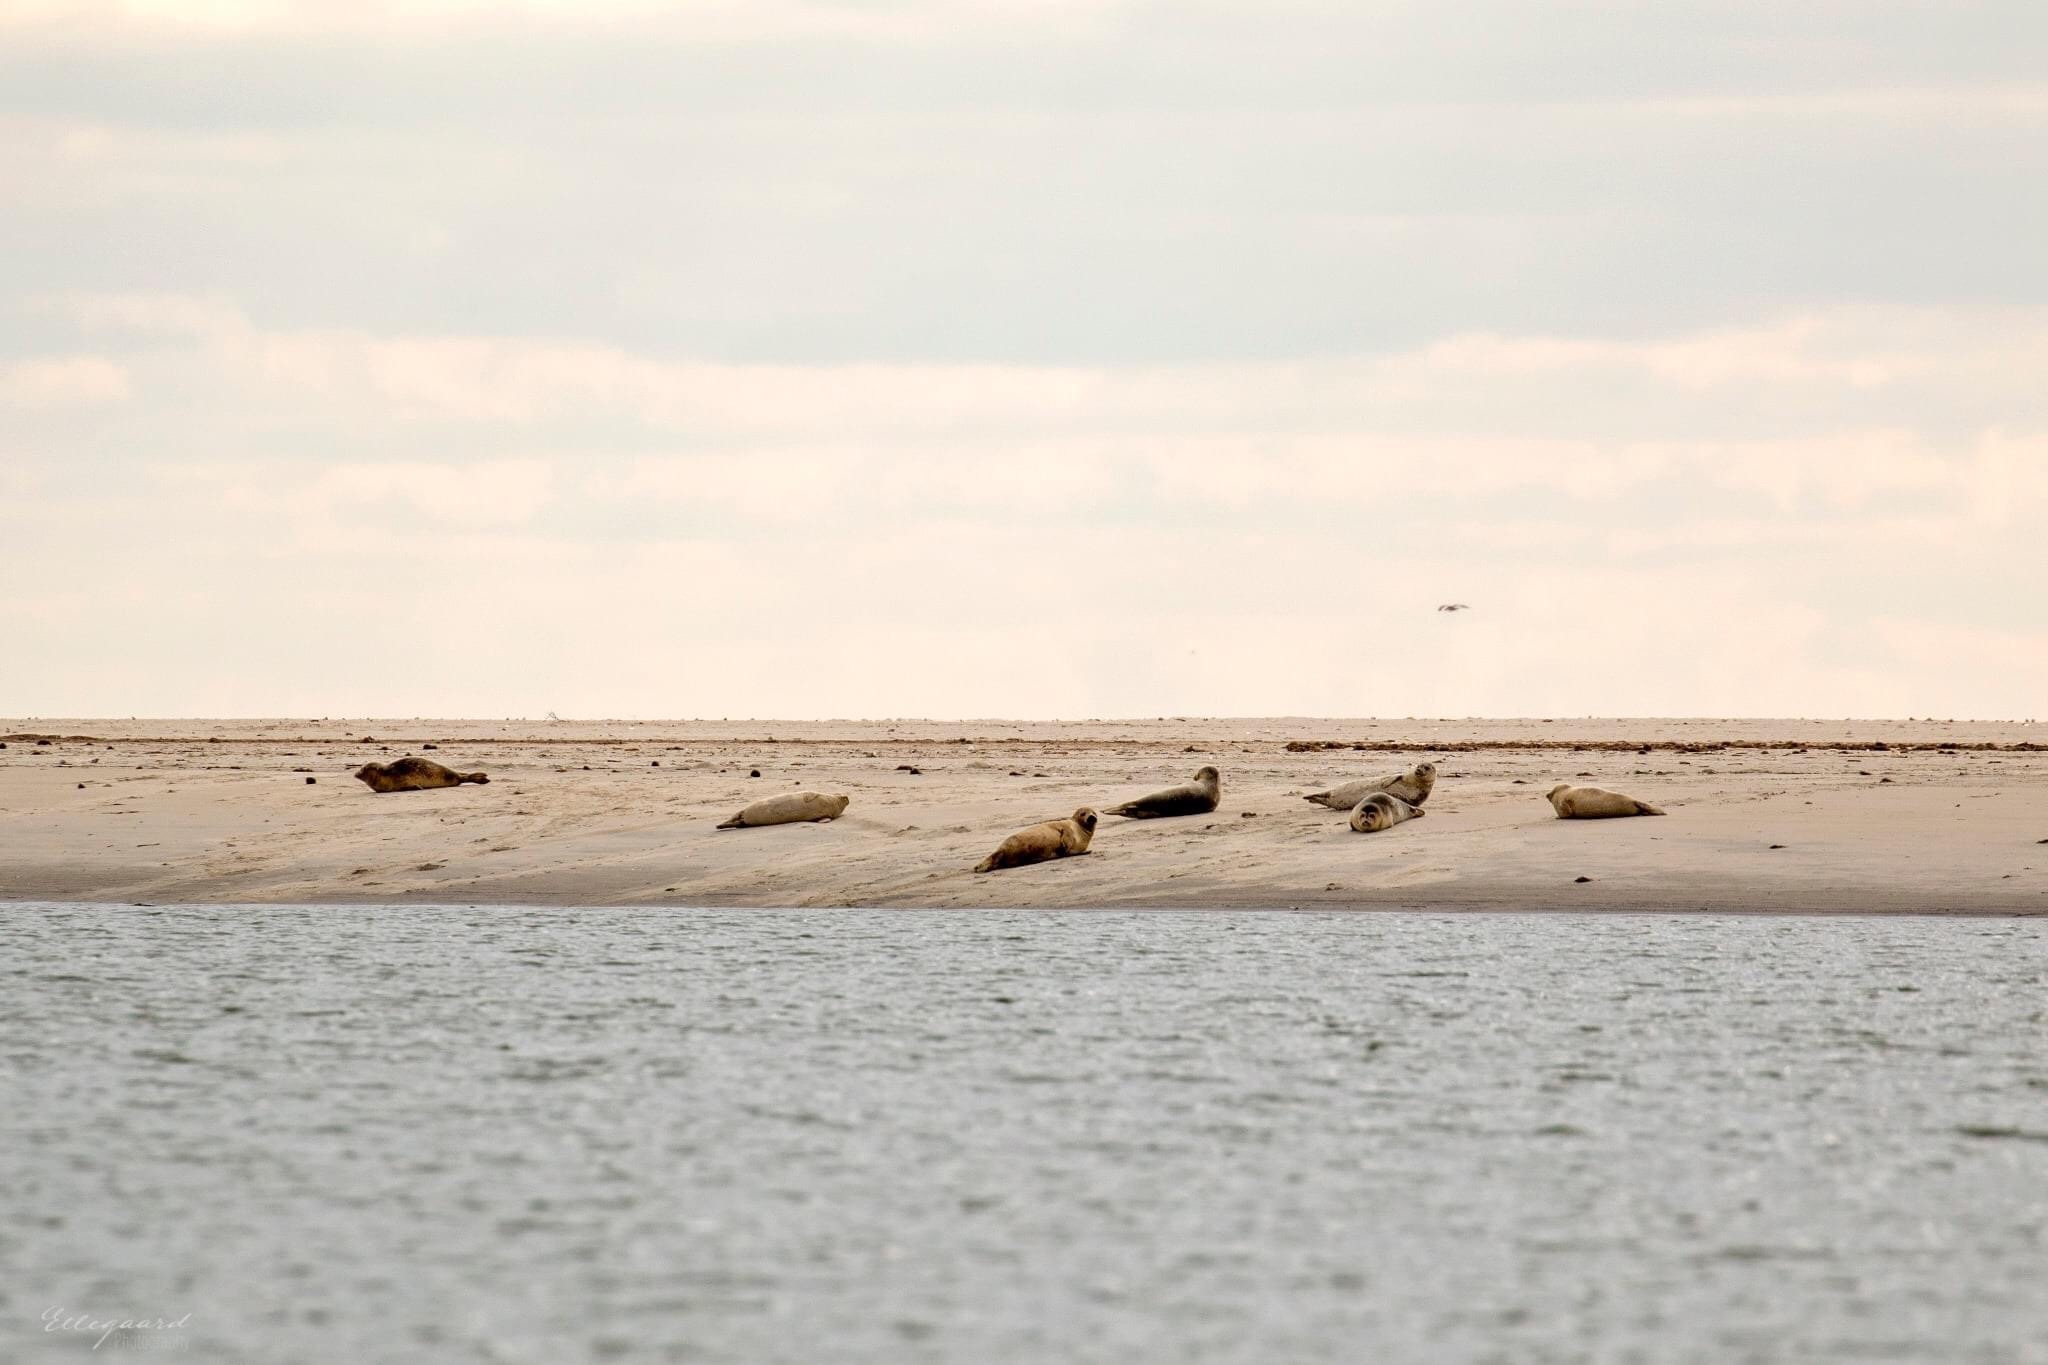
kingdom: Animalia
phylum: Chordata
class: Mammalia
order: Carnivora
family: Phocidae
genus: Halichoerus
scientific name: Halichoerus grypus
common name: Grey seal
